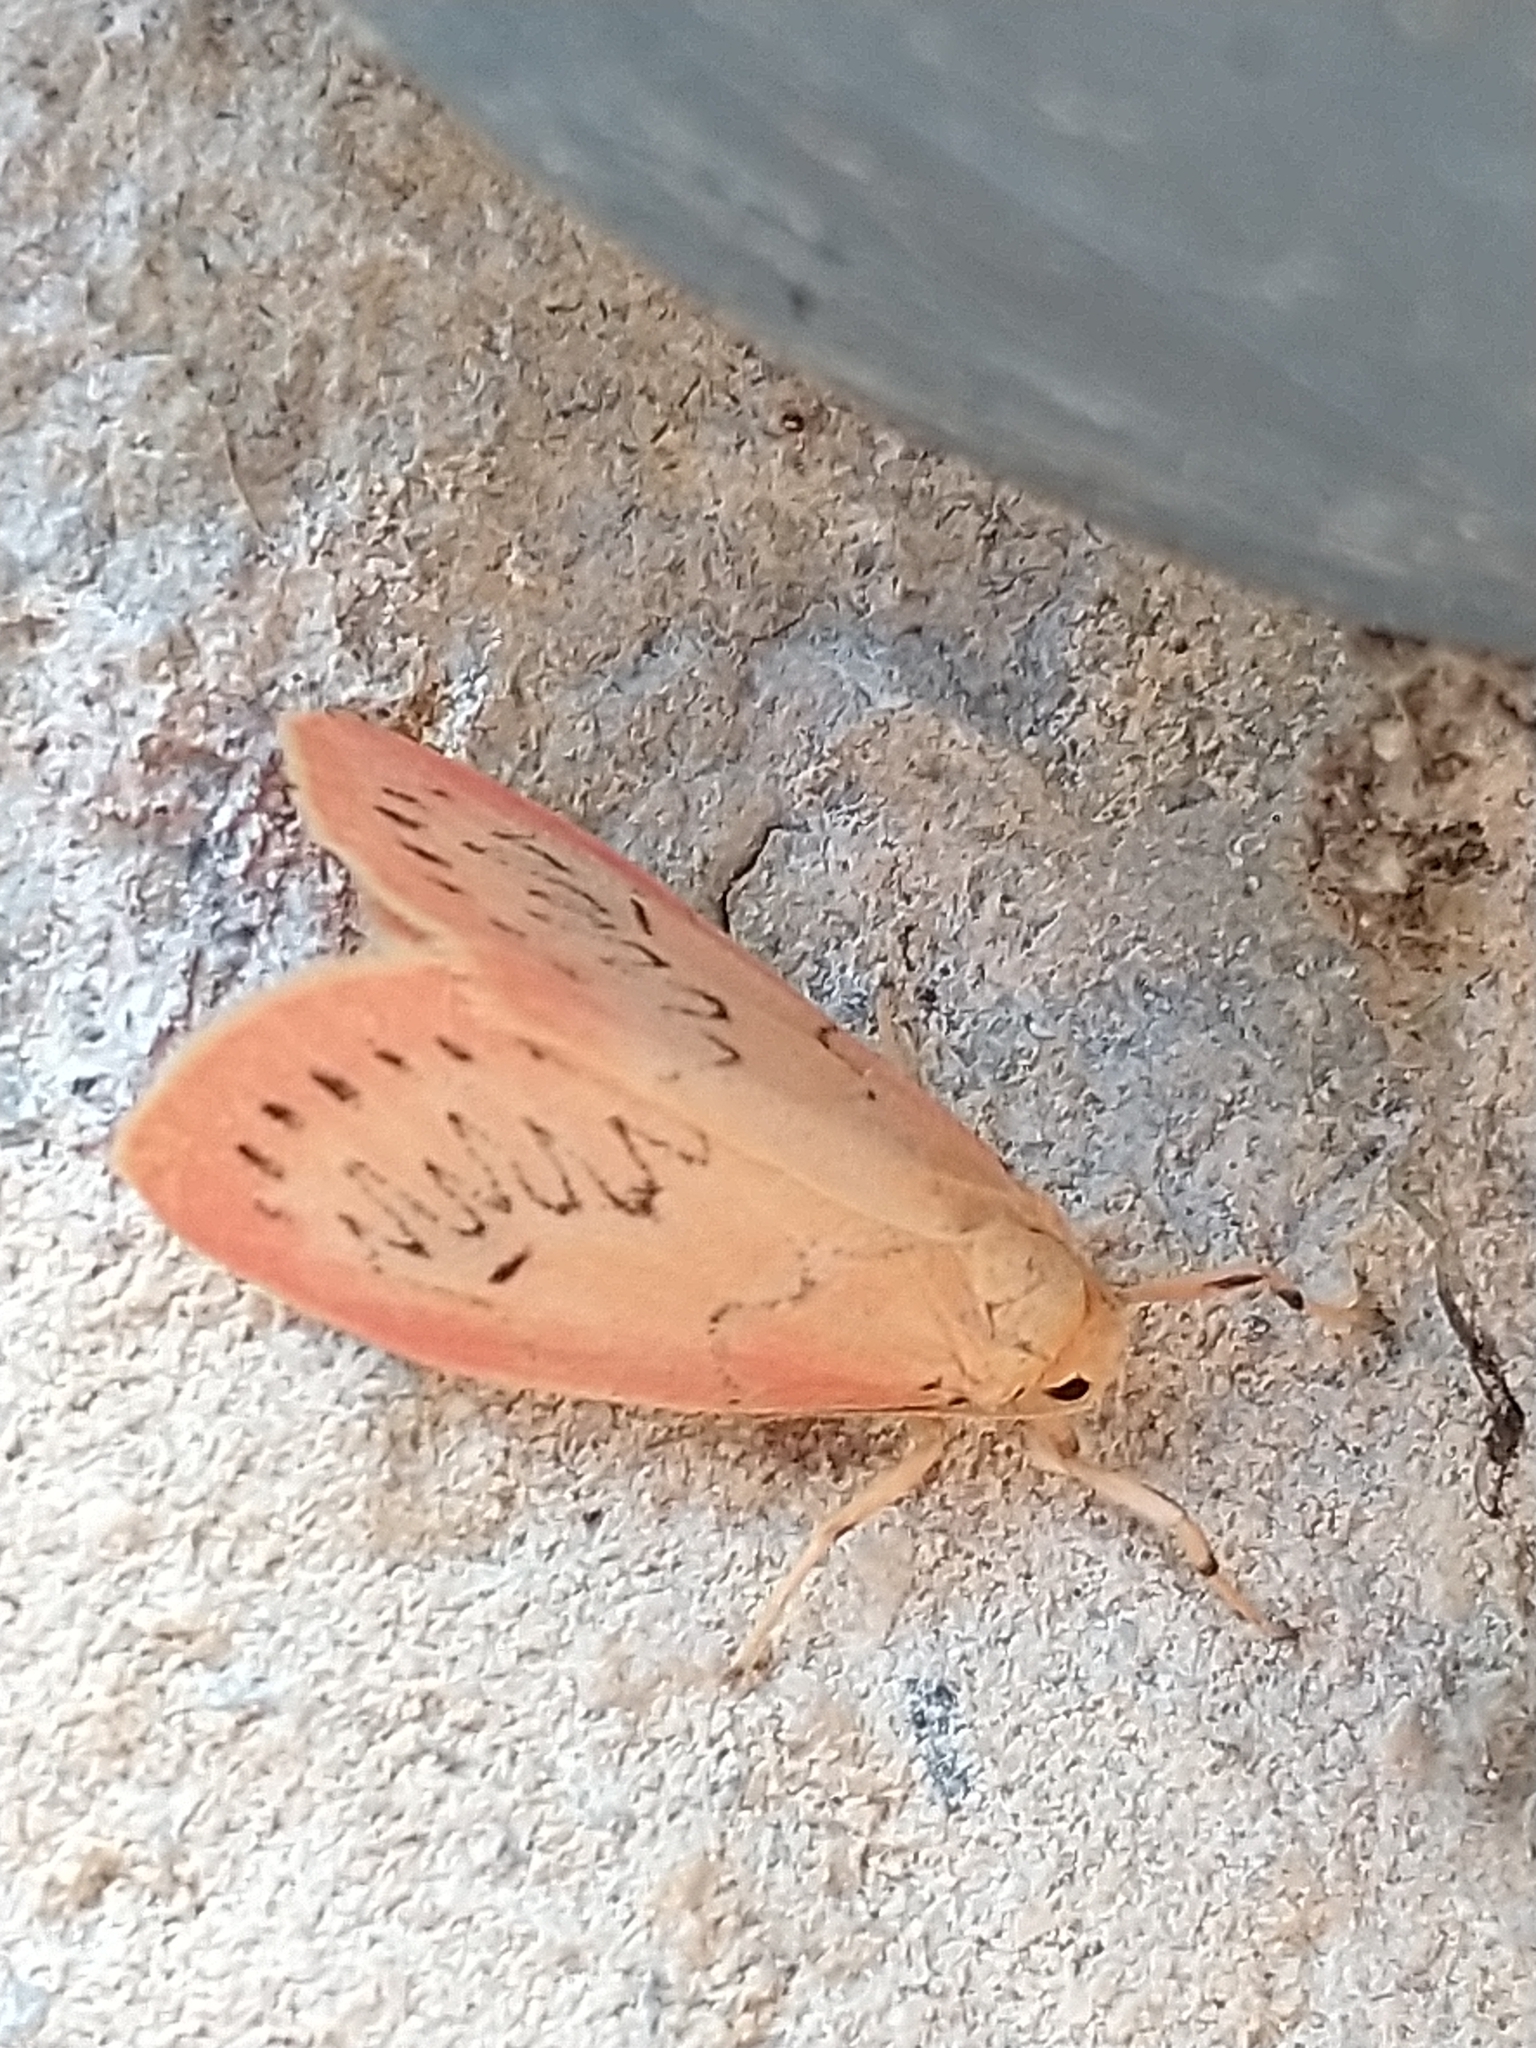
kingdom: Animalia
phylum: Arthropoda
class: Insecta
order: Lepidoptera
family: Erebidae
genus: Miltochrista
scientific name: Miltochrista miniata
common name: Rosy footman
